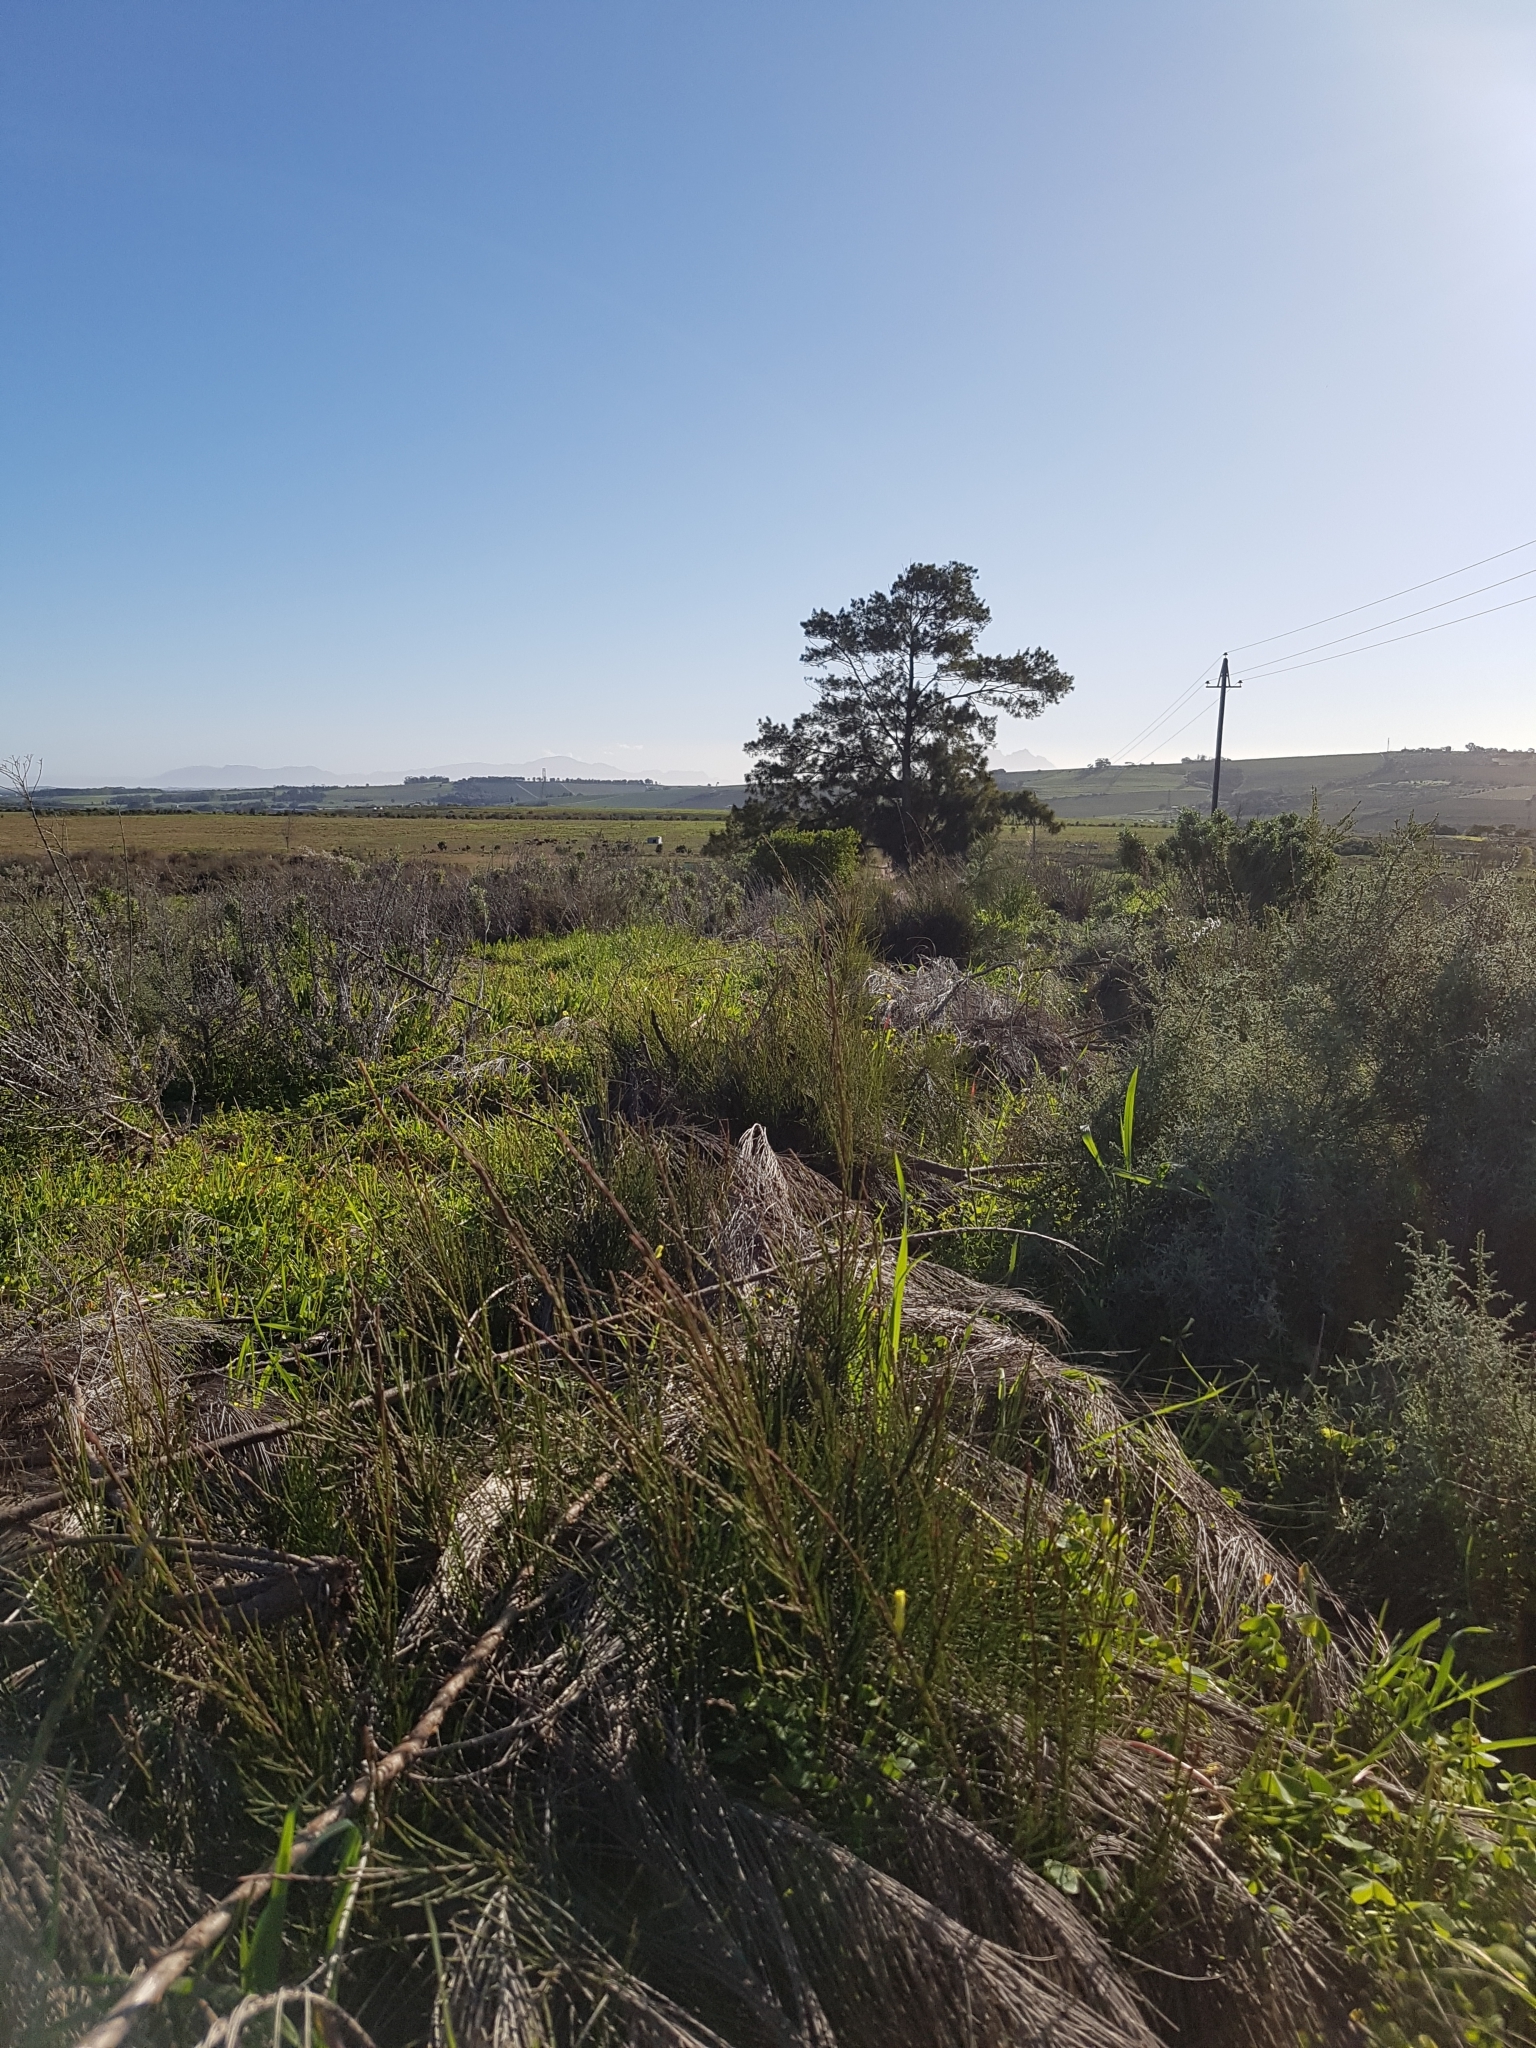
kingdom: Plantae
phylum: Tracheophyta
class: Magnoliopsida
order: Fagales
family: Casuarinaceae
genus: Casuarina
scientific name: Casuarina cunninghamiana
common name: River sheoak
